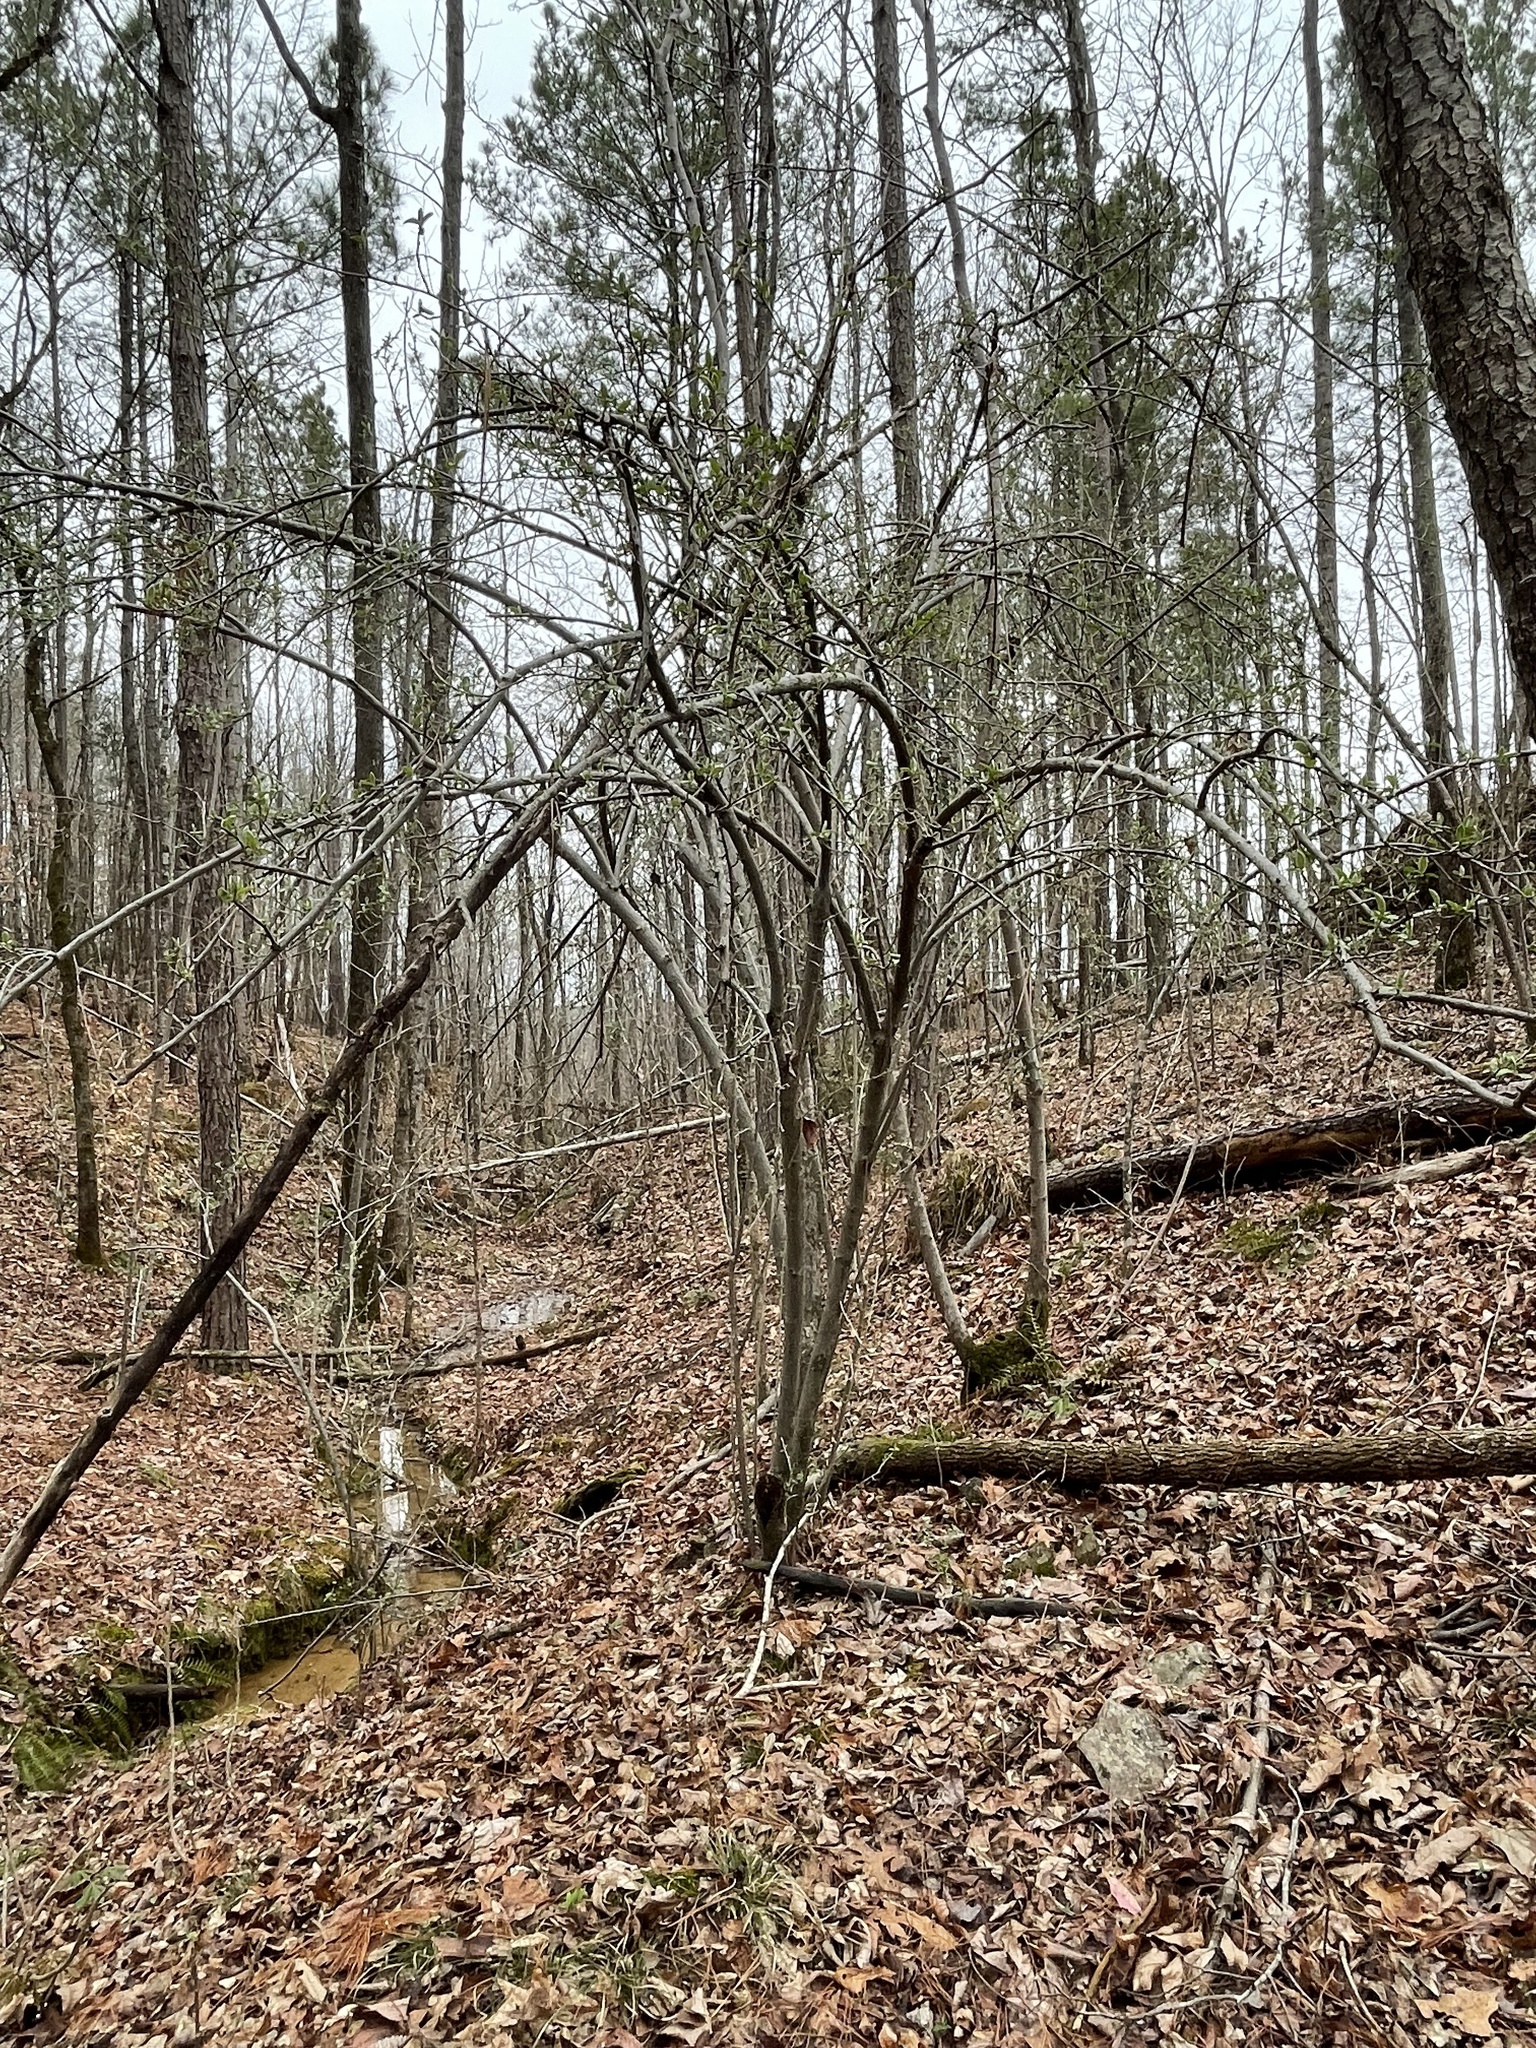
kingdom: Plantae
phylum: Tracheophyta
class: Magnoliopsida
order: Rosales
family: Elaeagnaceae
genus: Elaeagnus
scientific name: Elaeagnus umbellata
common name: Autumn olive
